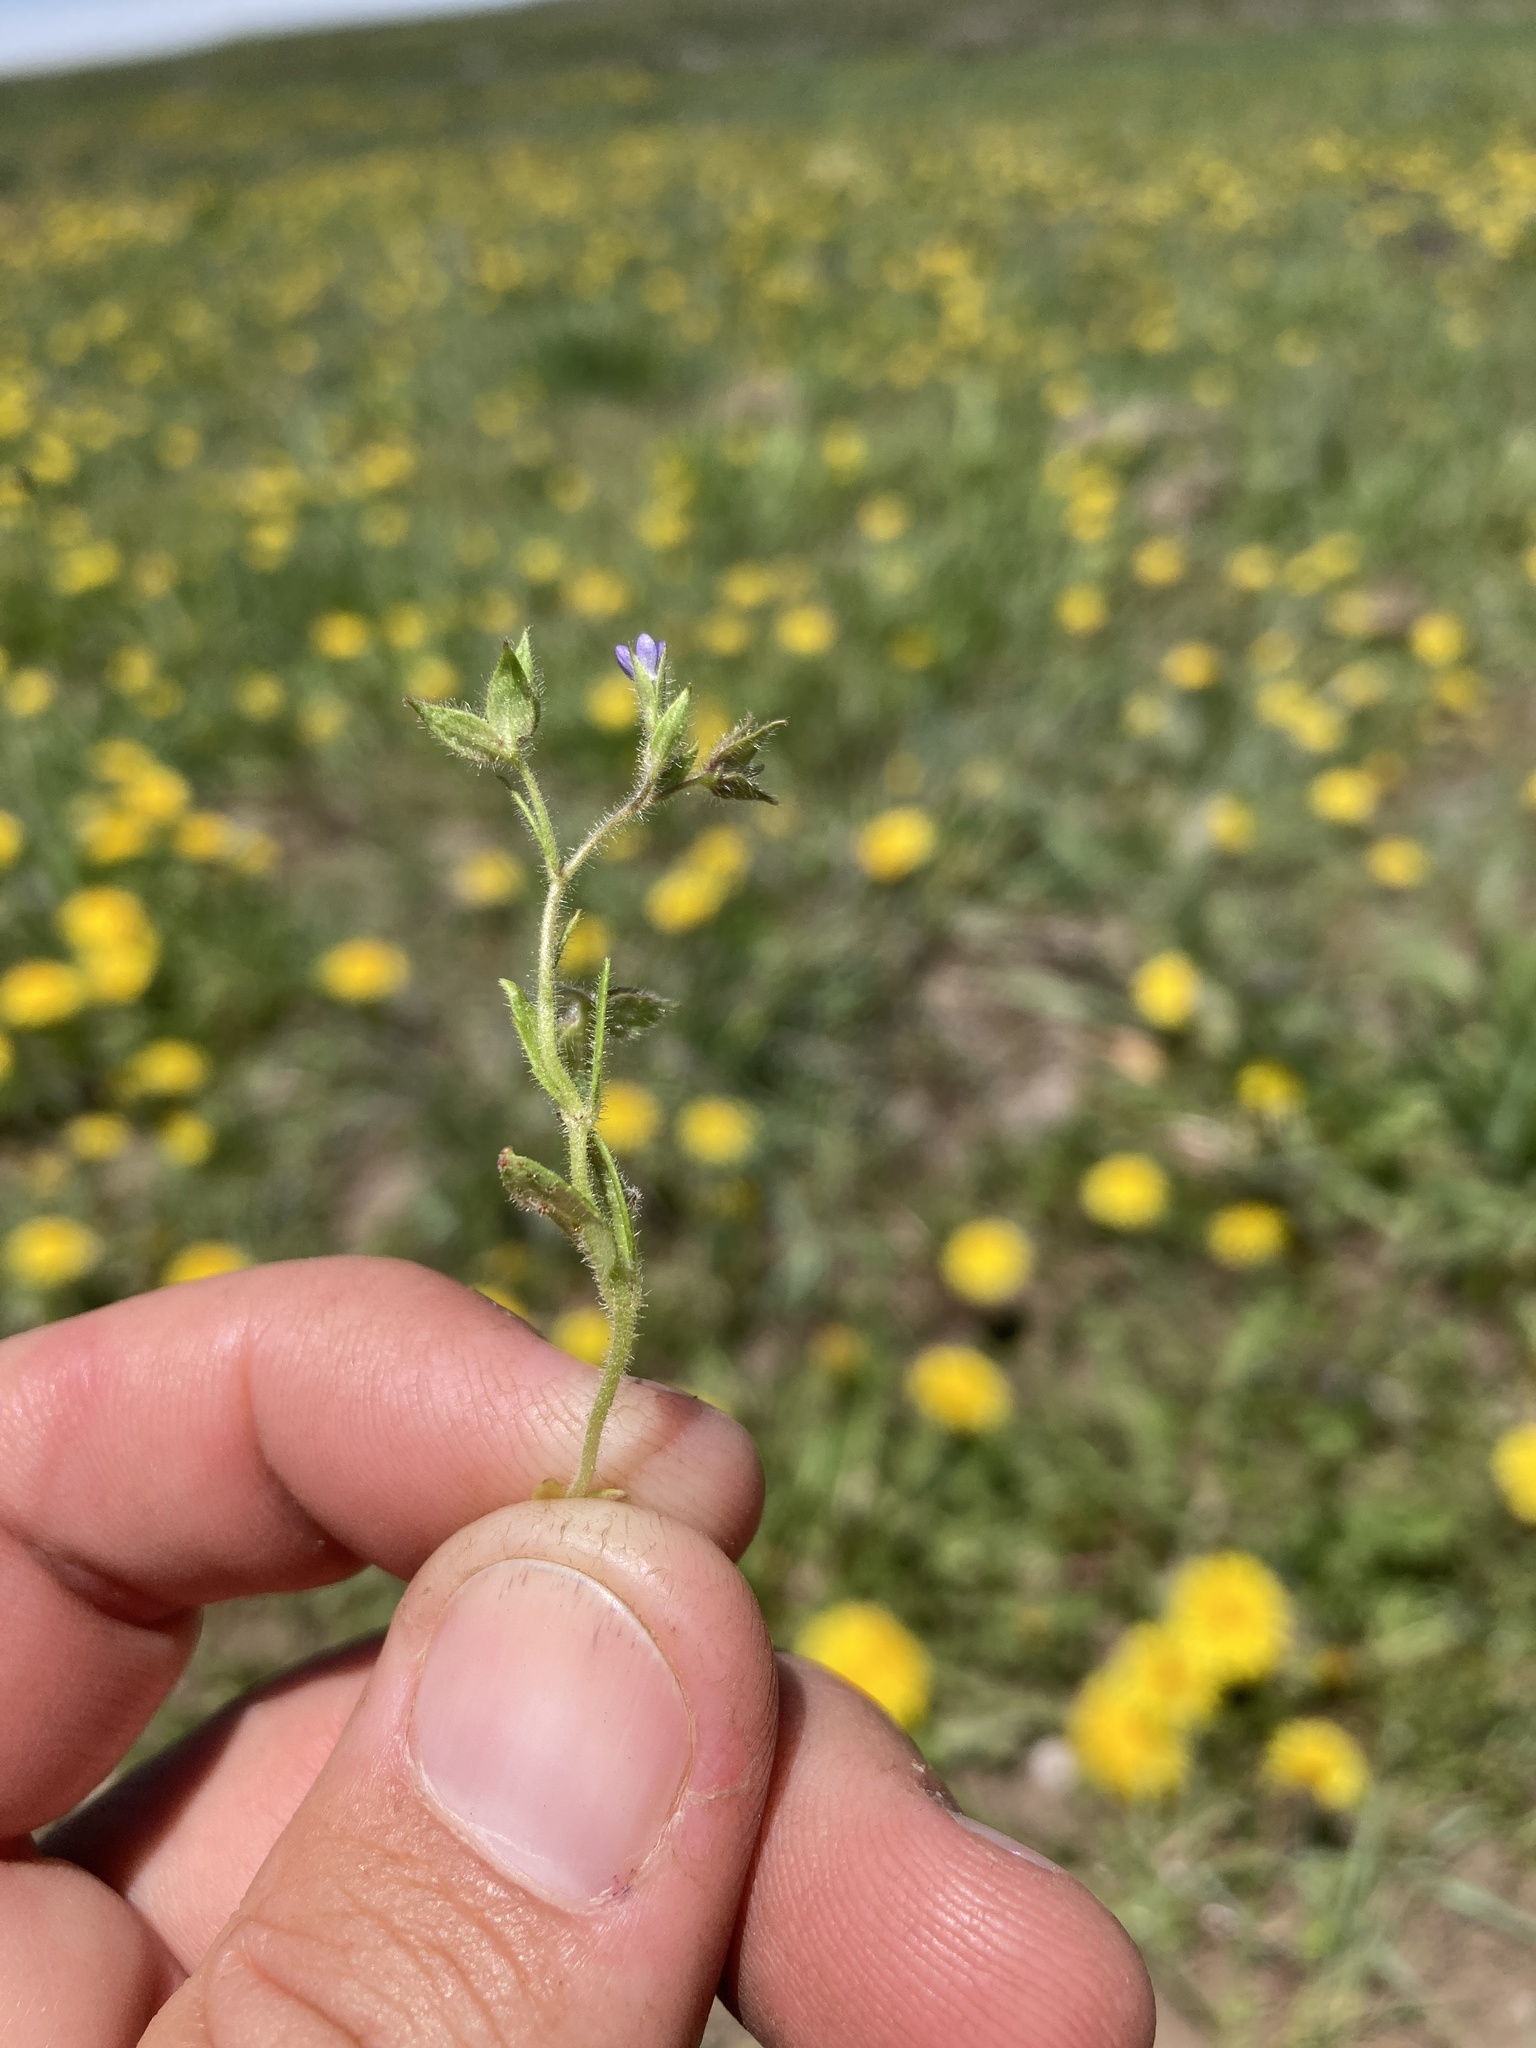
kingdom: Plantae
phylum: Tracheophyta
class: Magnoliopsida
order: Lamiales
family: Plantaginaceae
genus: Veronica
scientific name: Veronica biloba
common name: Twolobe speedwell
